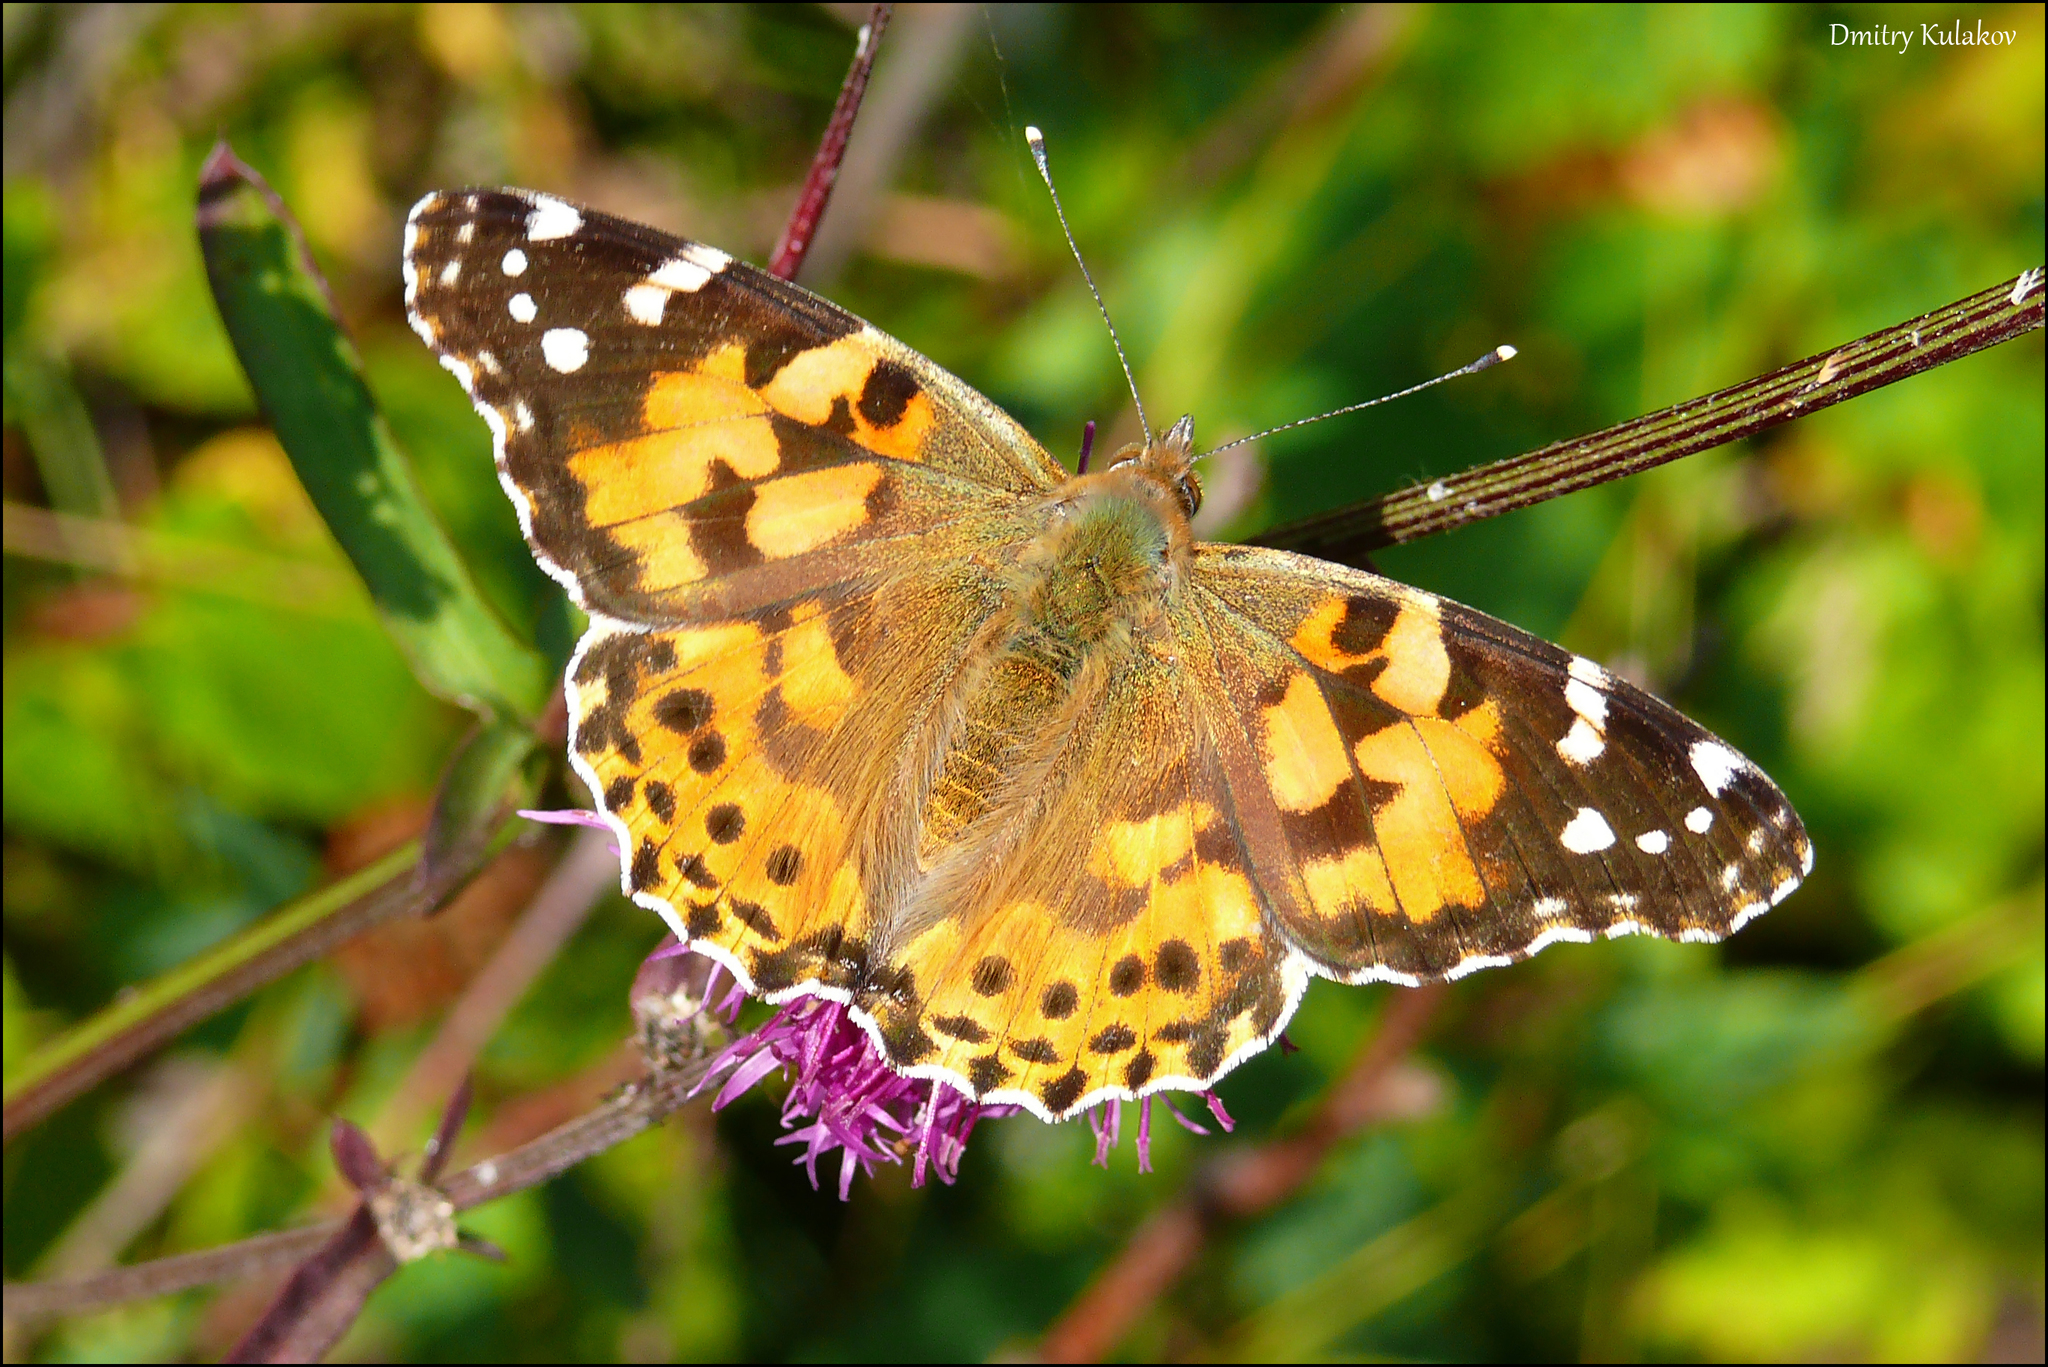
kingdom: Animalia
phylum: Arthropoda
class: Insecta
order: Lepidoptera
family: Nymphalidae
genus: Vanessa
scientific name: Vanessa cardui
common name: Painted lady
